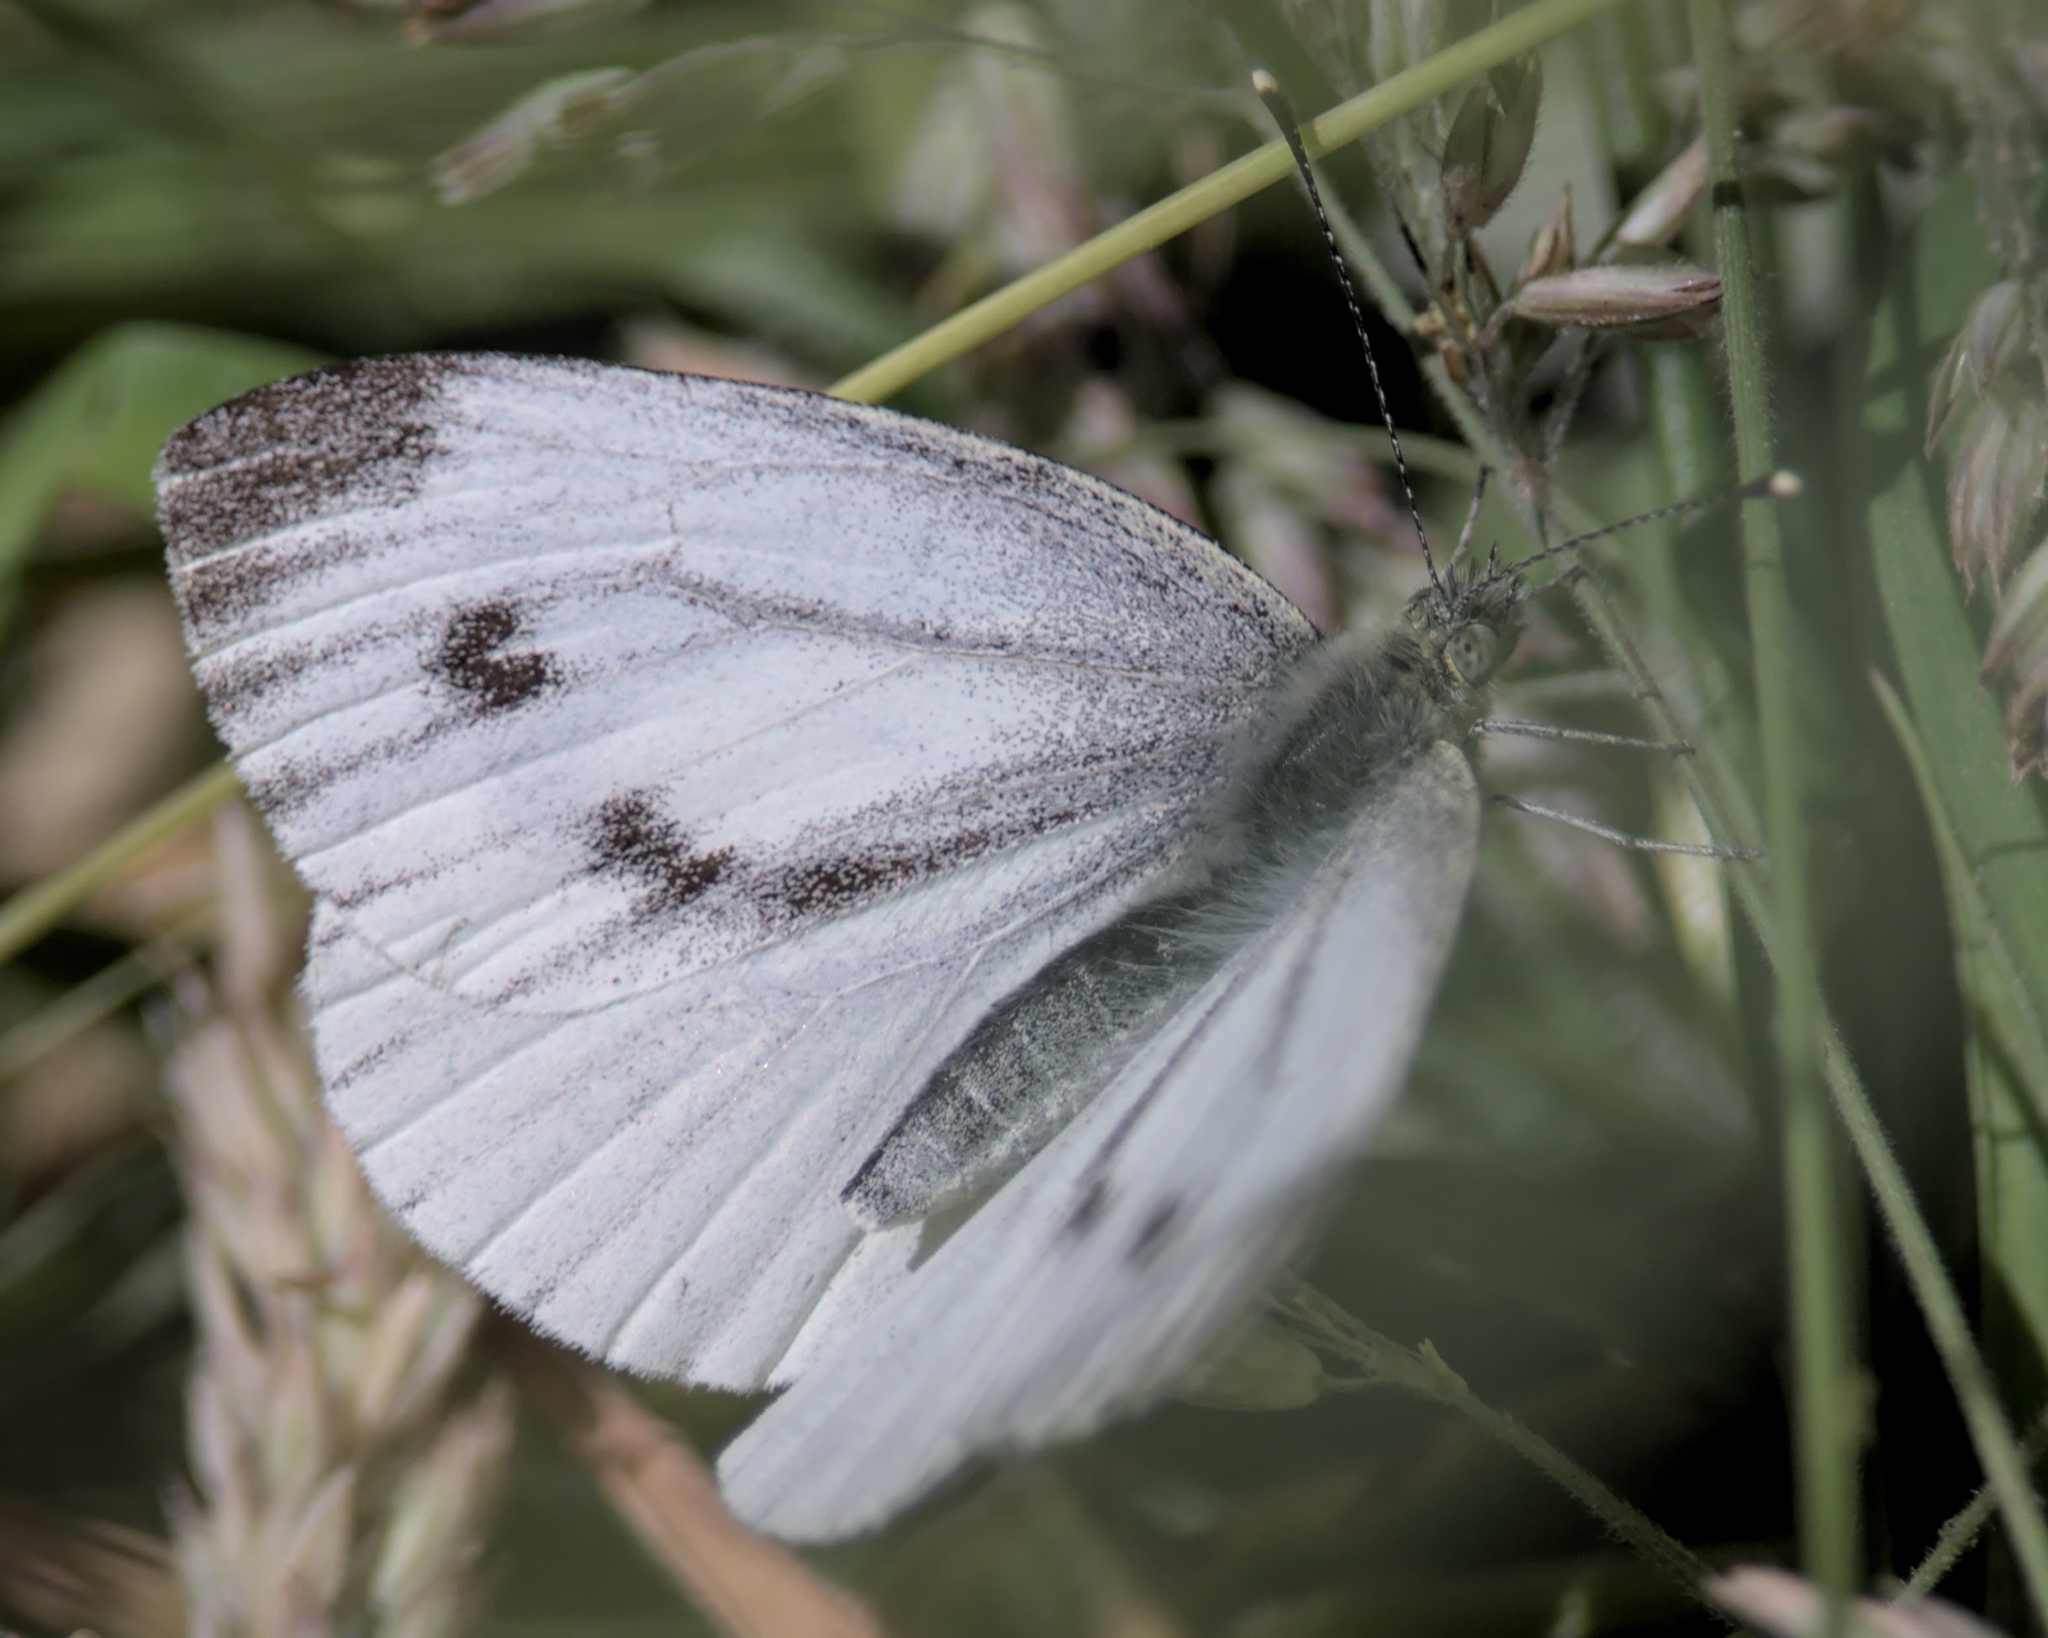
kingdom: Animalia
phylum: Arthropoda
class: Insecta
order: Lepidoptera
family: Pieridae
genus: Pieris
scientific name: Pieris napi
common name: Green-veined white
